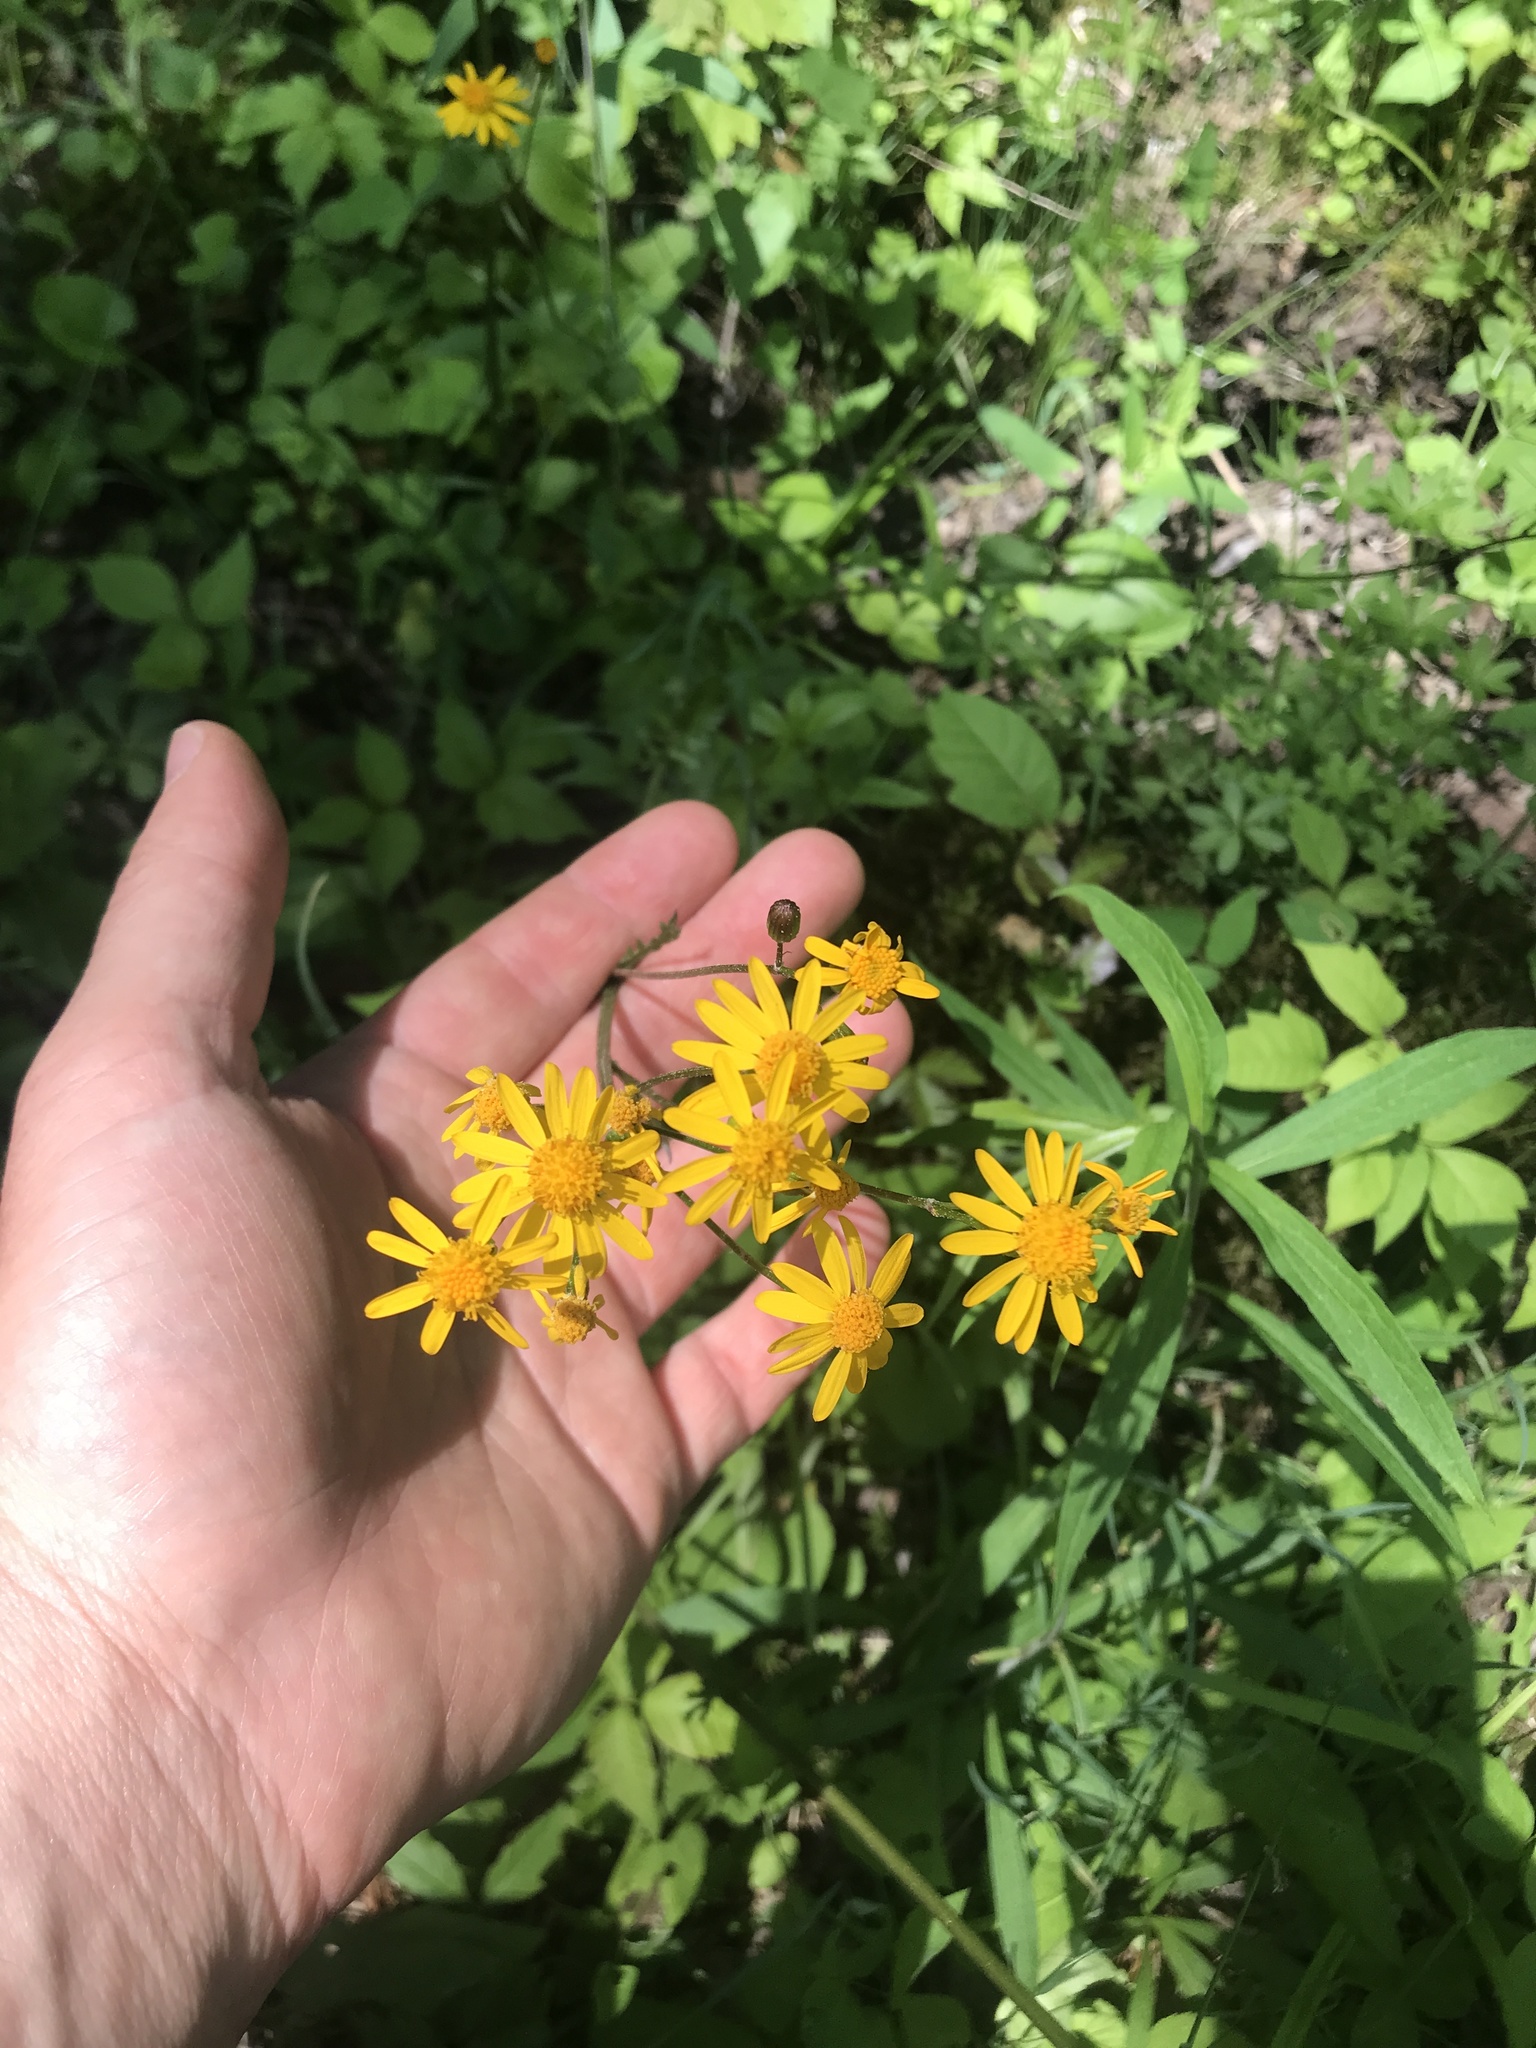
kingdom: Plantae
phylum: Tracheophyta
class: Magnoliopsida
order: Asterales
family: Asteraceae
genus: Packera
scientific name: Packera aurea
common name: Golden groundsel
